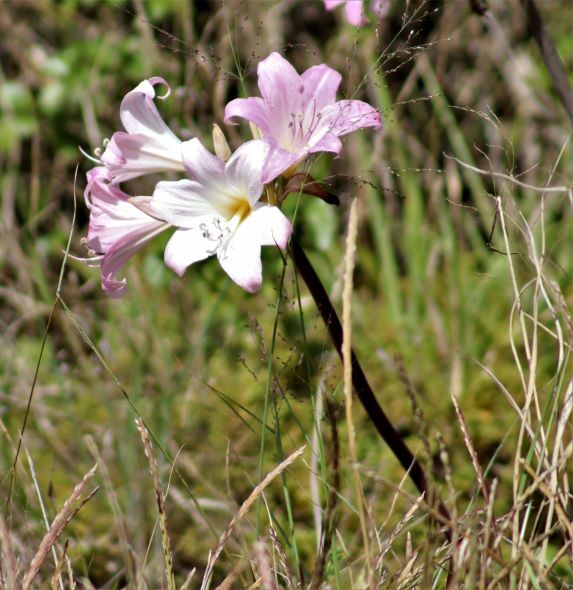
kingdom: Plantae
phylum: Tracheophyta
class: Liliopsida
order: Asparagales
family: Amaryllidaceae
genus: Amaryllis
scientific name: Amaryllis belladonna
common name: Jersey lily
